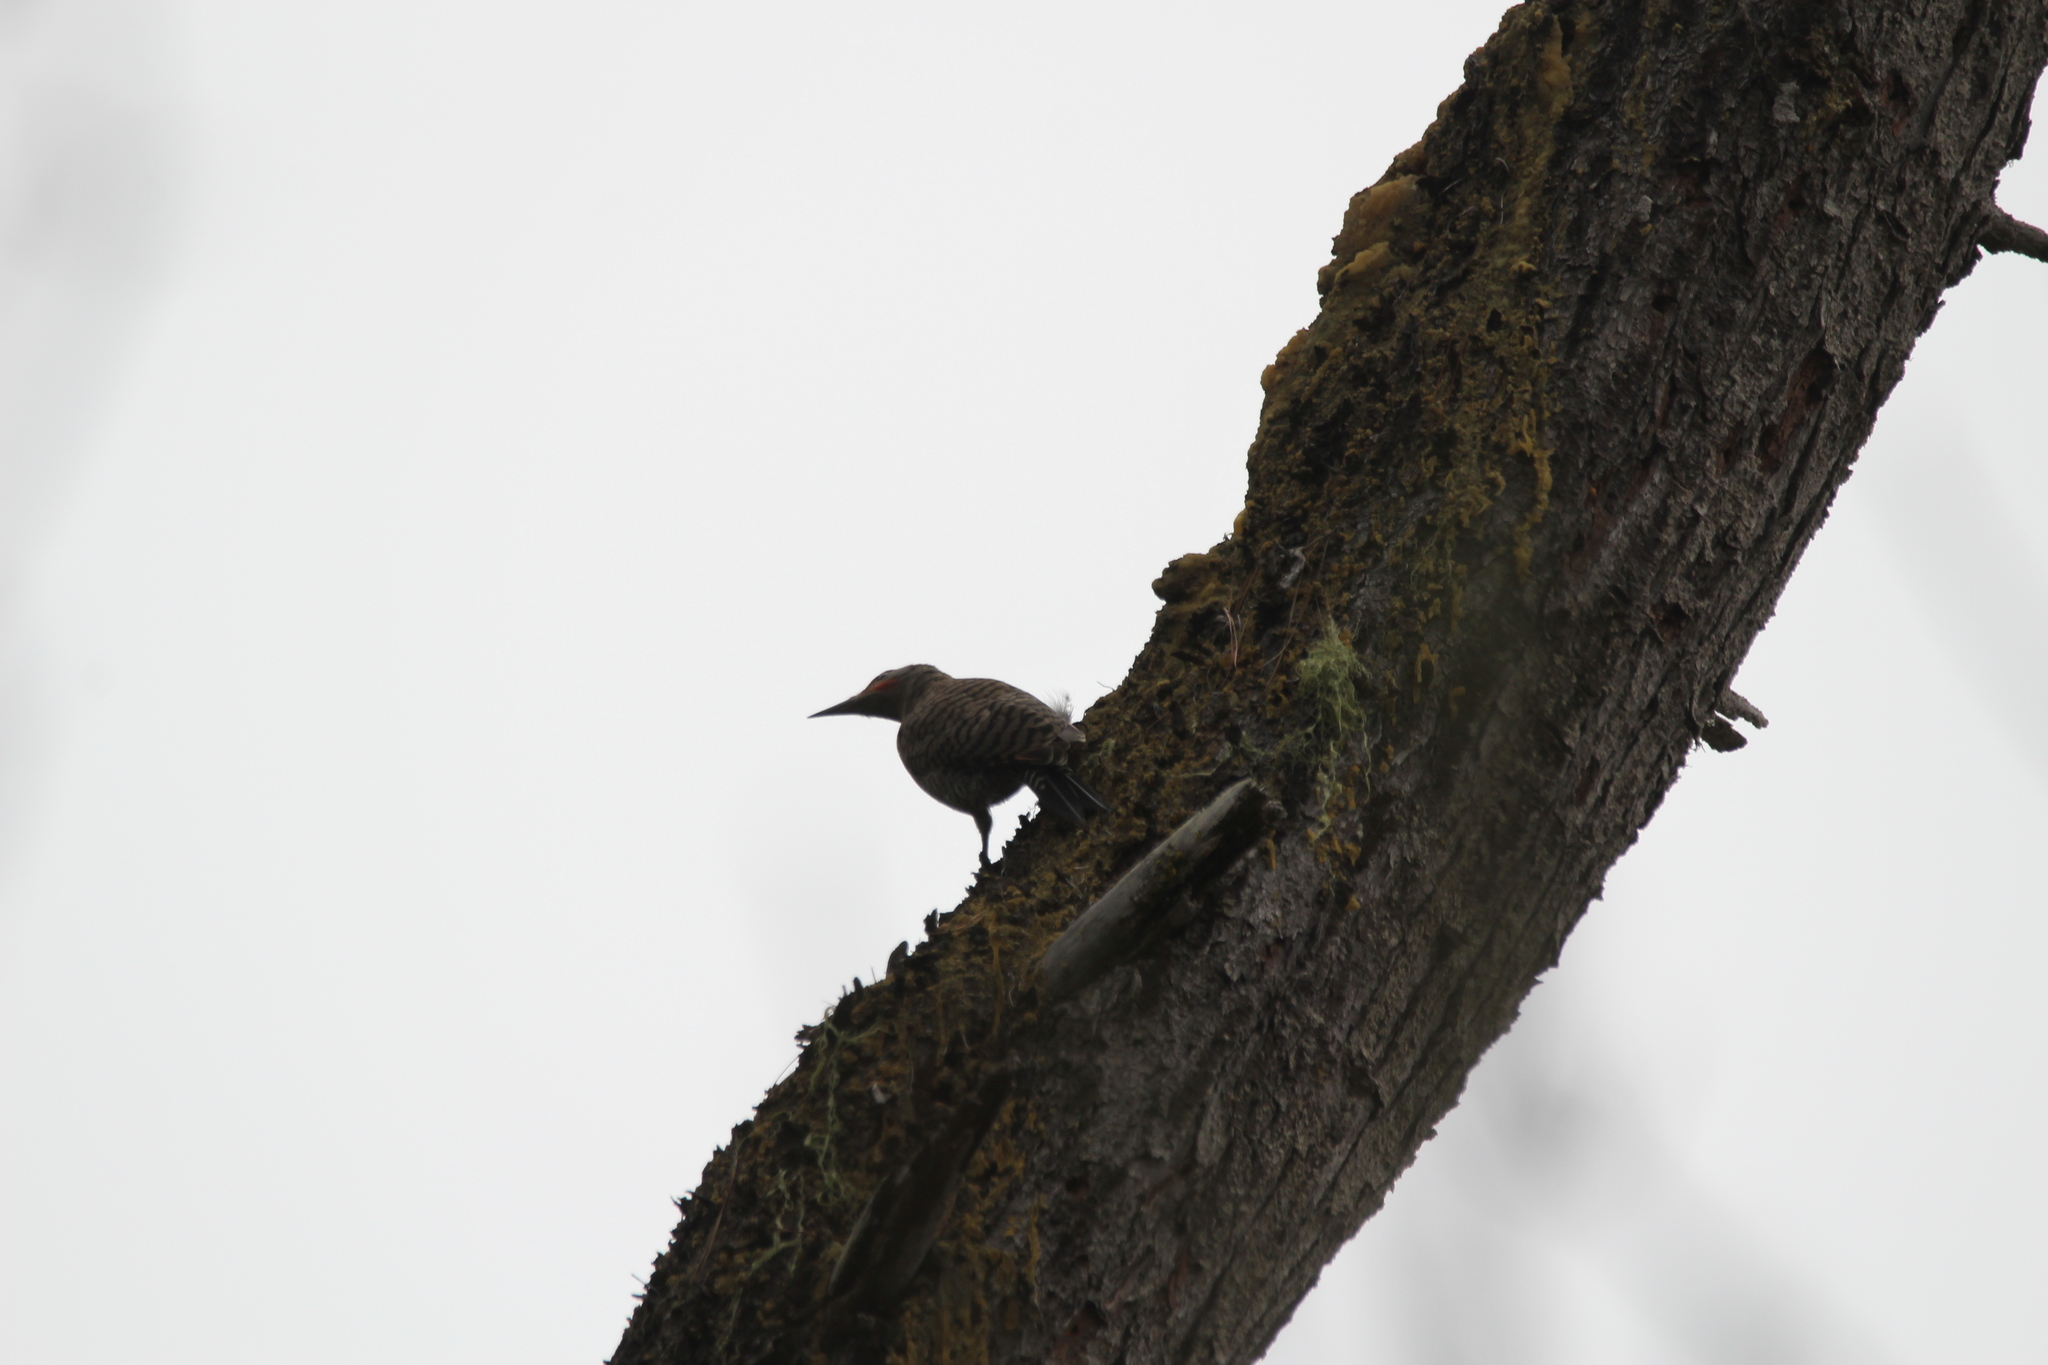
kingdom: Animalia
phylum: Chordata
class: Aves
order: Piciformes
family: Picidae
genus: Colaptes
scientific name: Colaptes auratus
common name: Northern flicker
